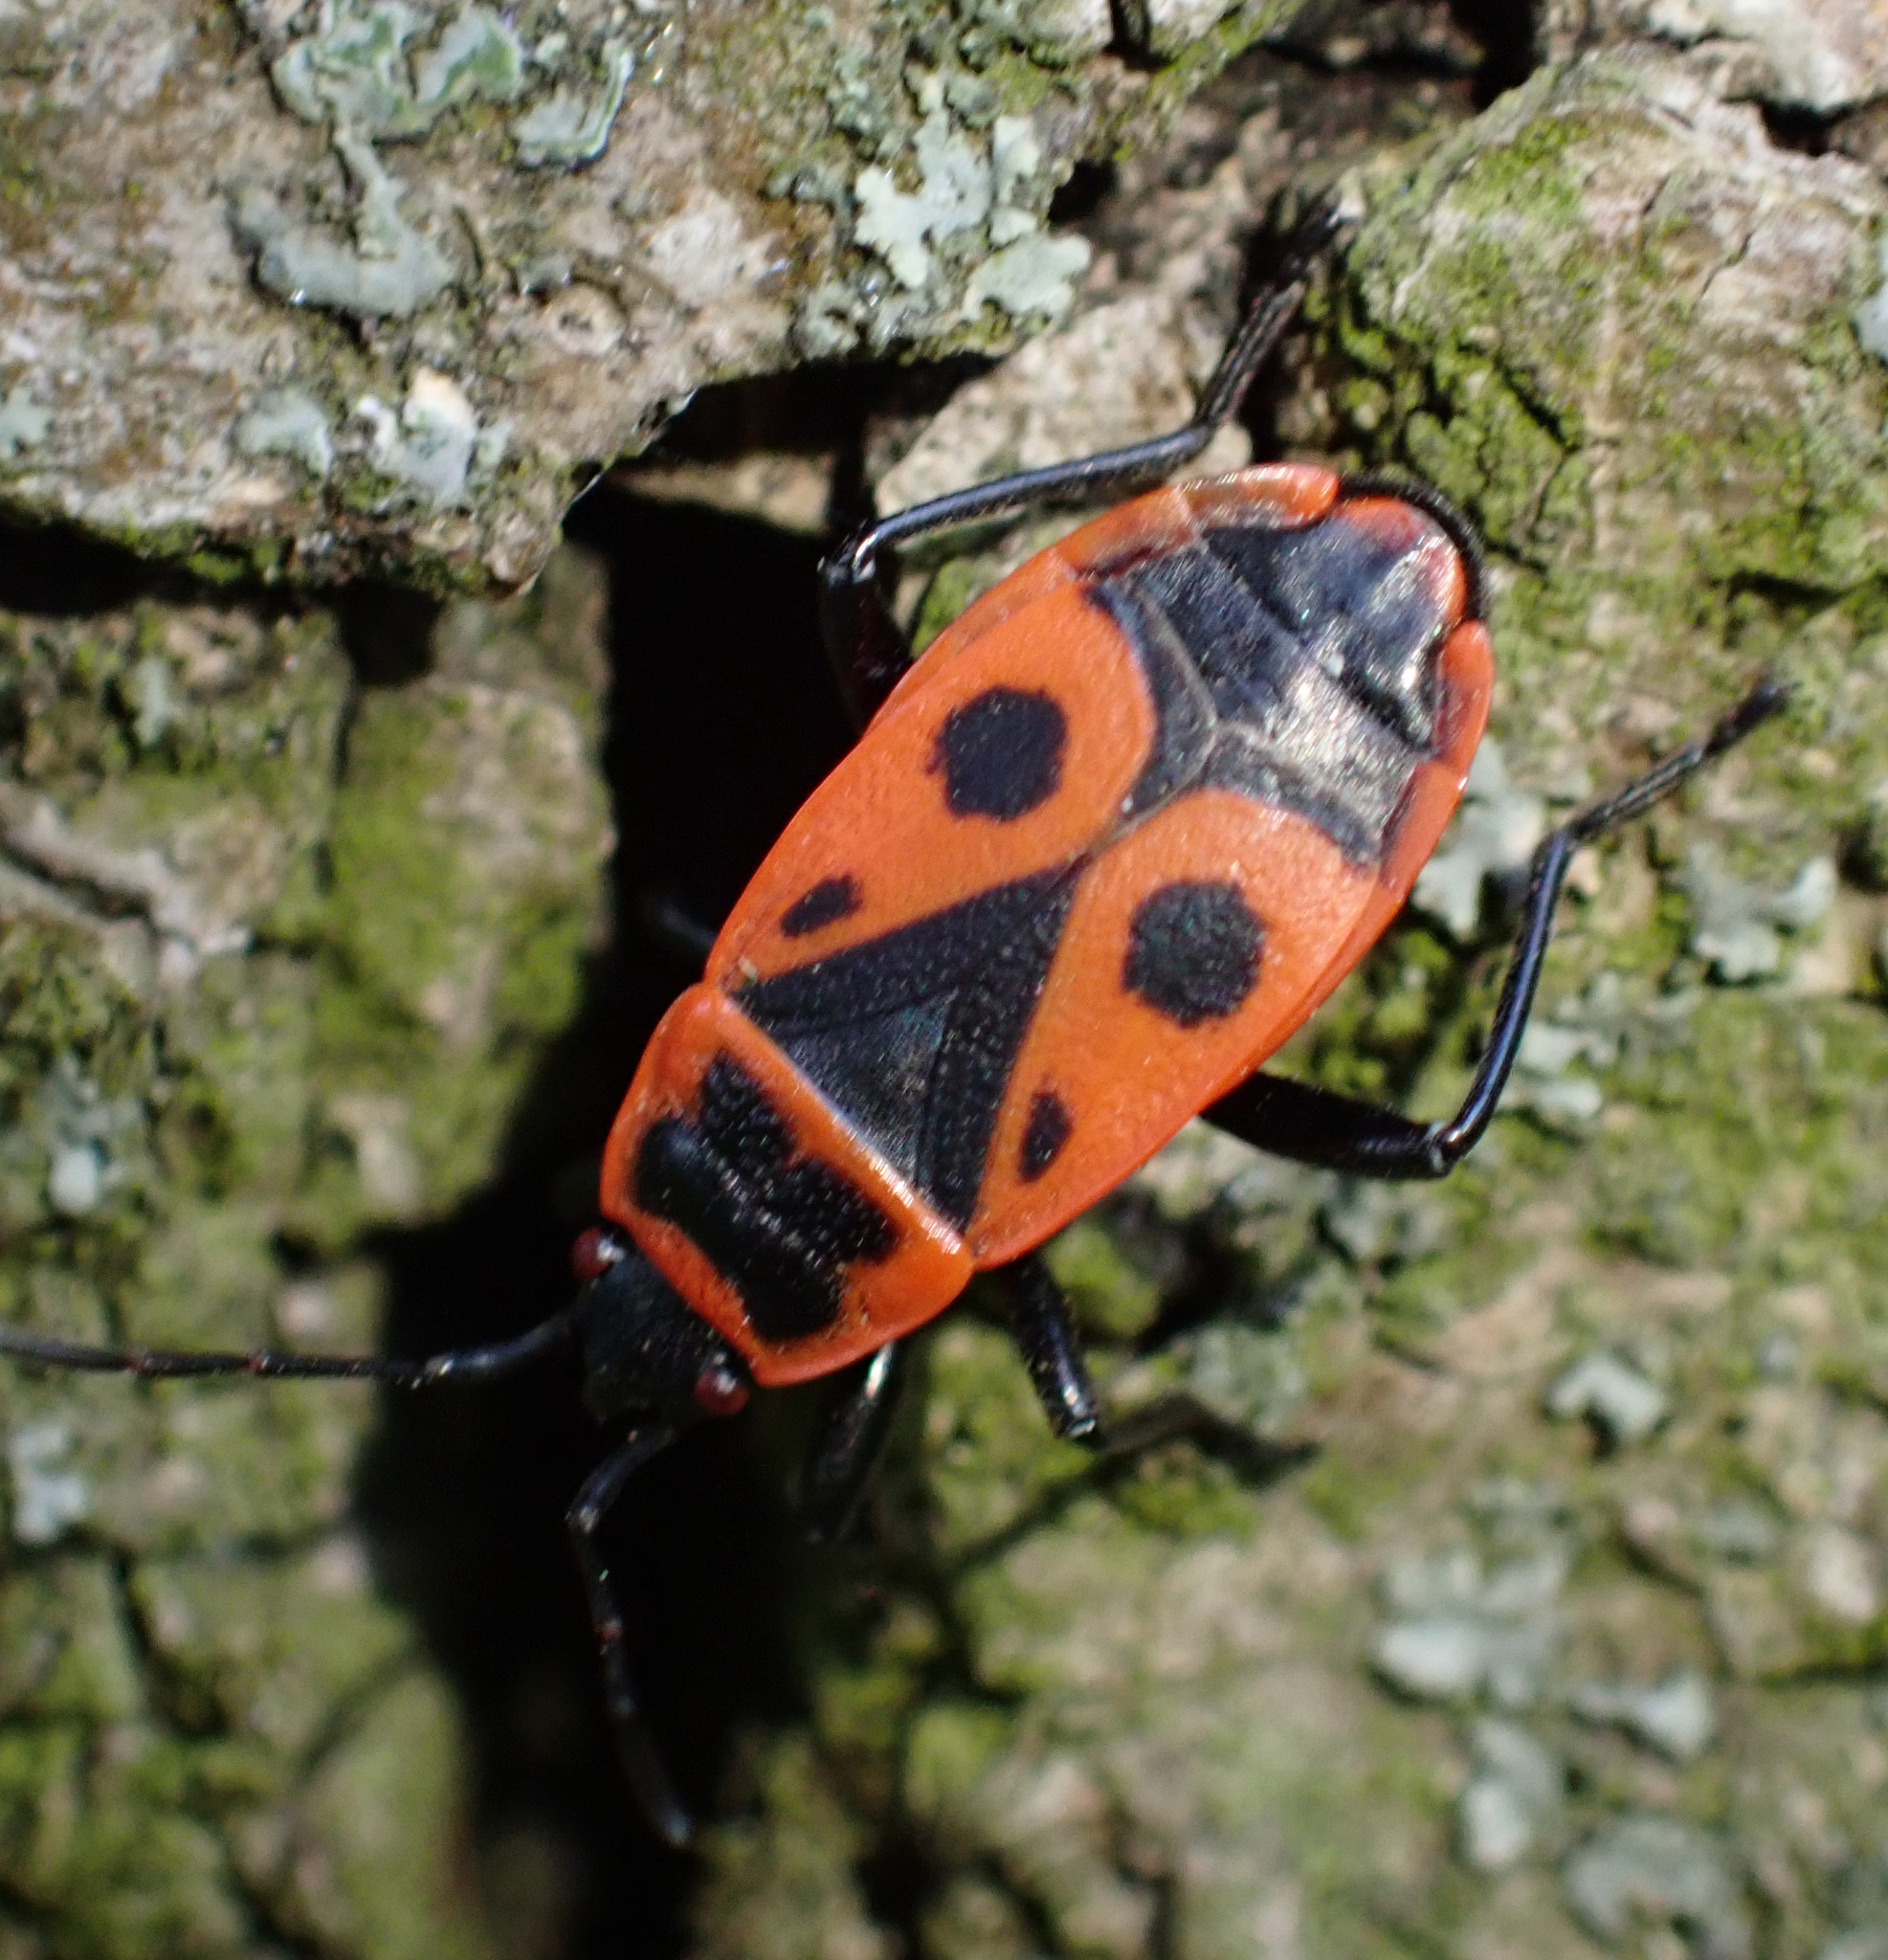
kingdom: Animalia
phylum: Arthropoda
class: Insecta
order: Hemiptera
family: Pyrrhocoridae
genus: Pyrrhocoris
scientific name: Pyrrhocoris apterus
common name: Firebug
